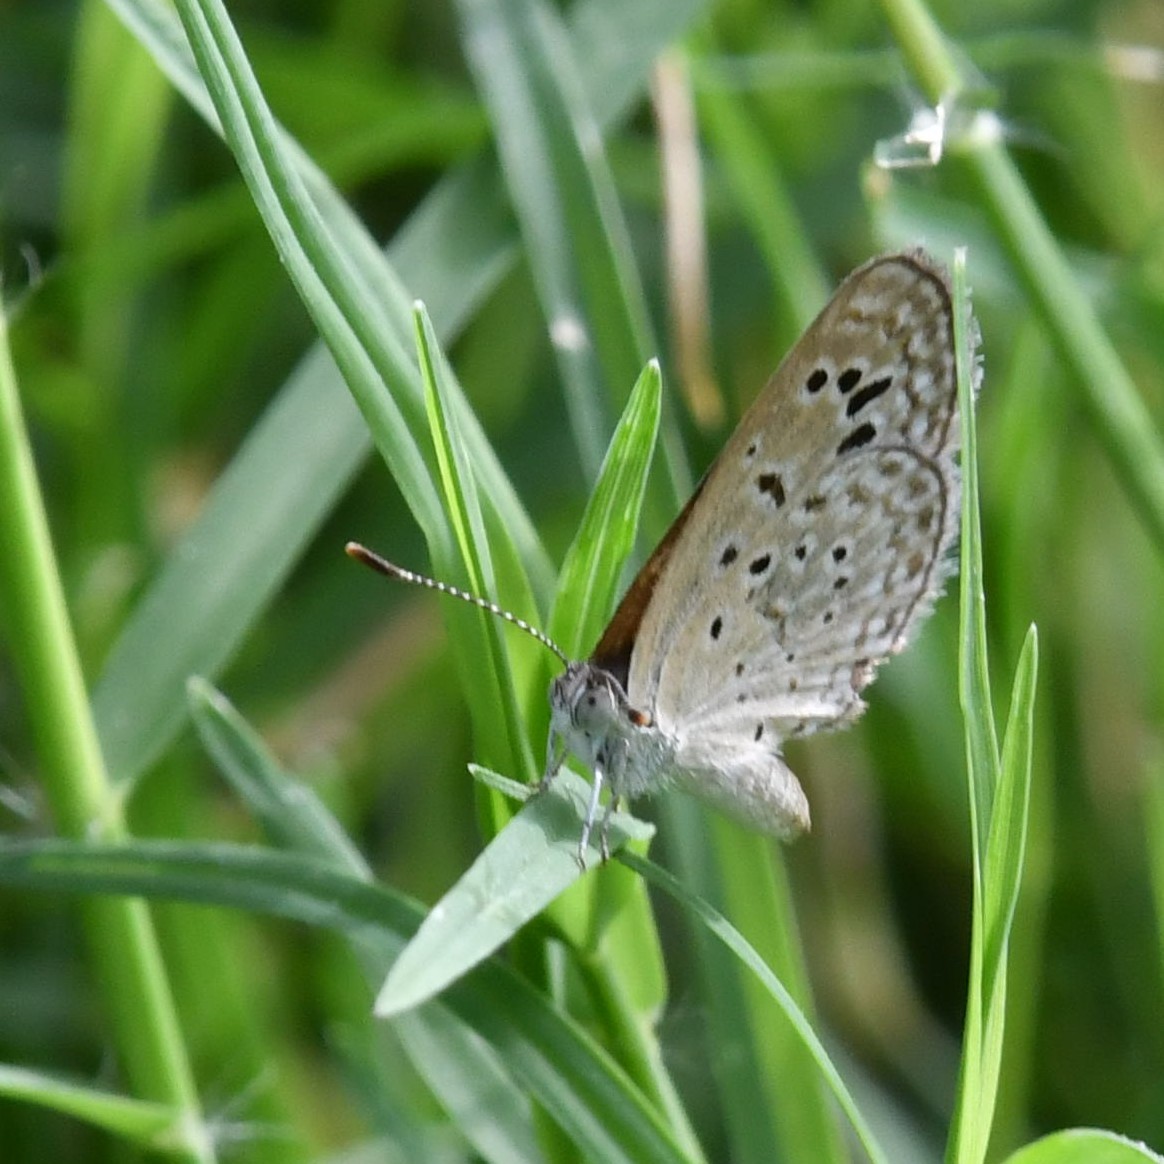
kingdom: Animalia
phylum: Arthropoda
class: Insecta
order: Lepidoptera
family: Lycaenidae
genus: Zizeeria
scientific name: Zizeeria karsandra
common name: Dark grass blue
